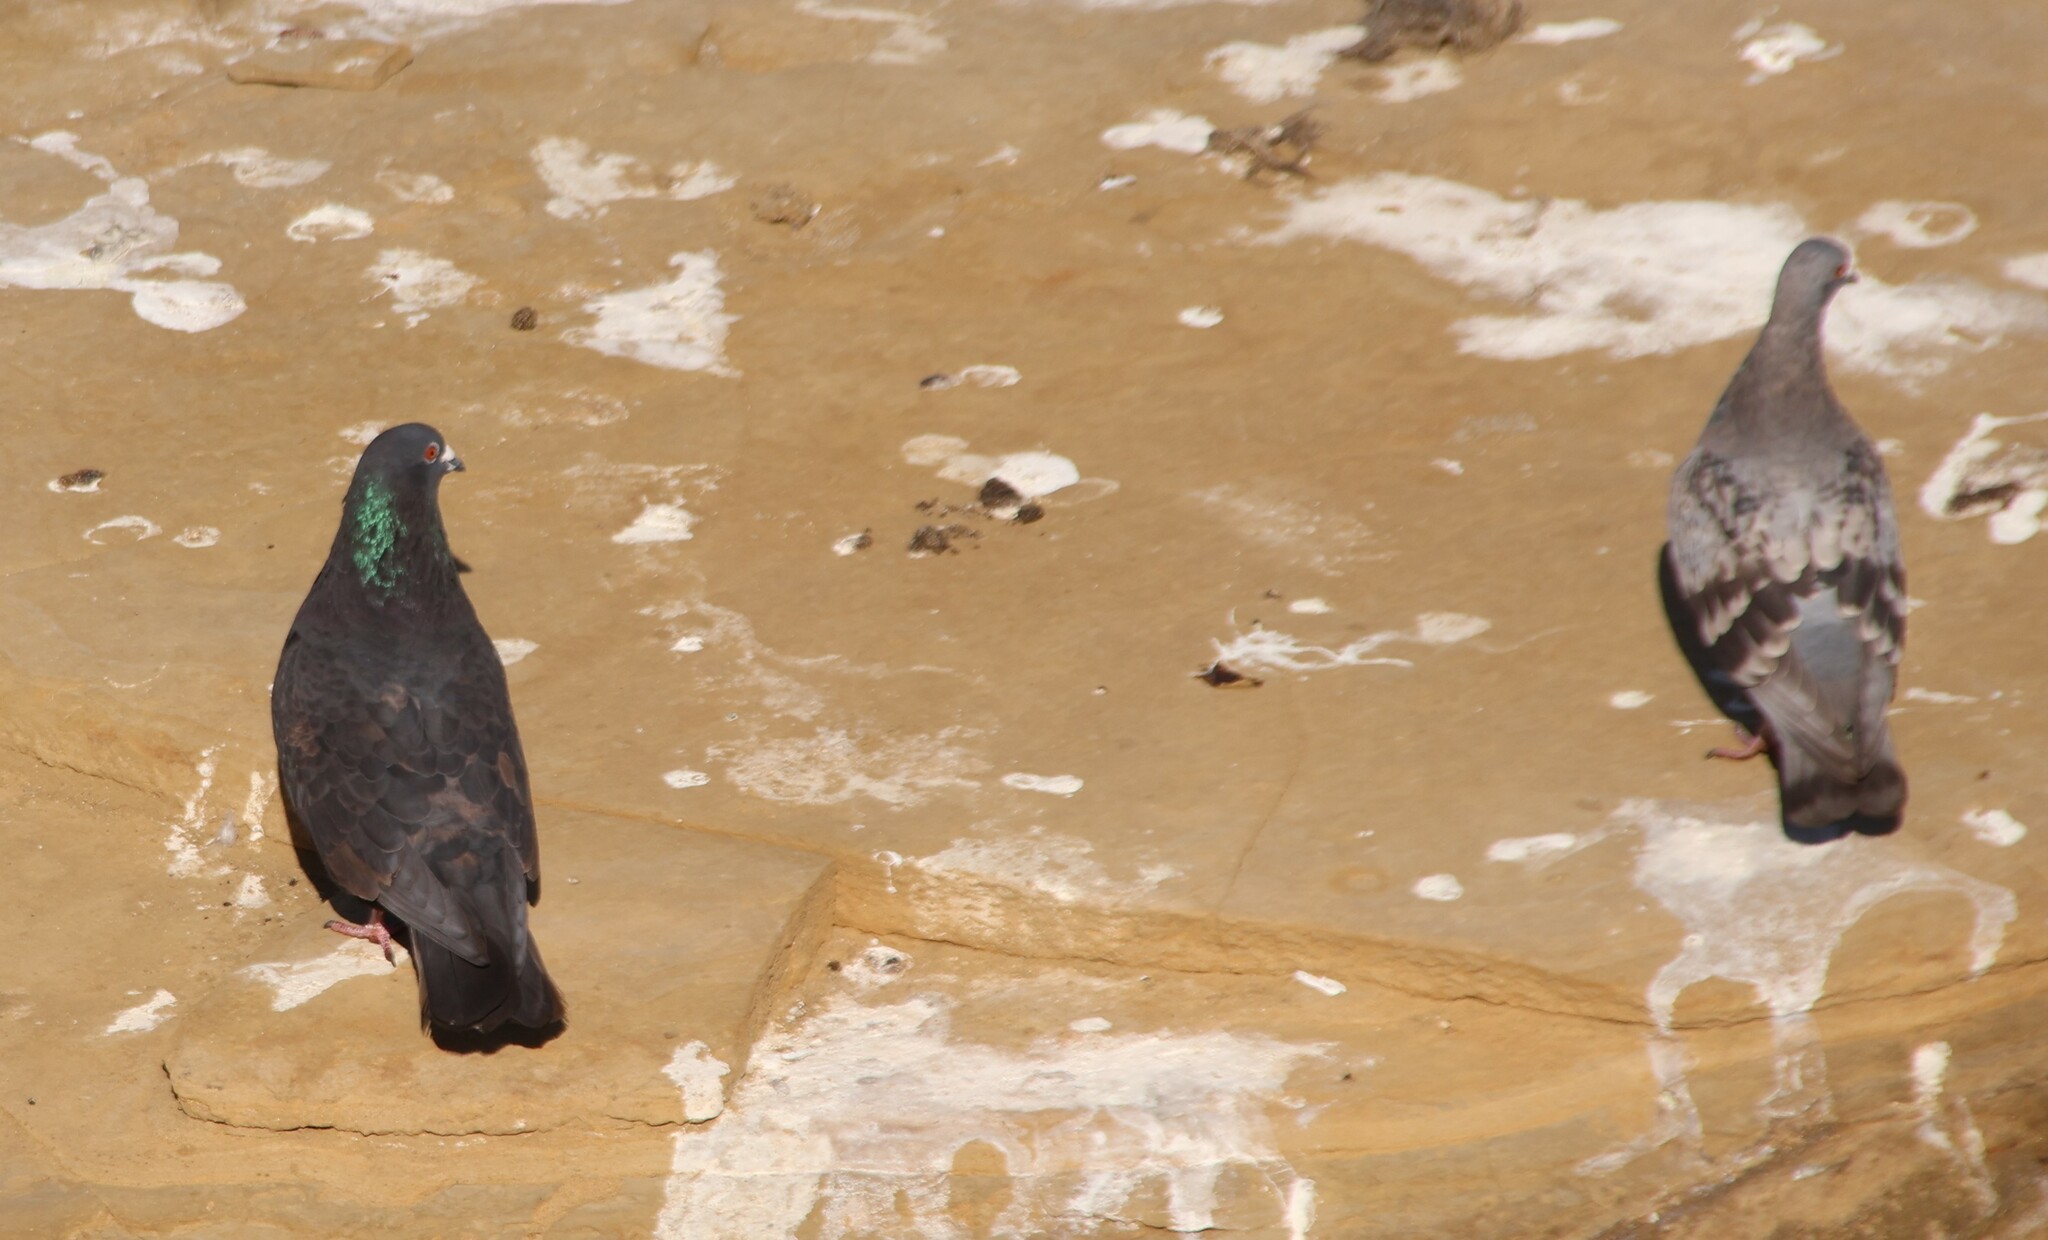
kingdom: Animalia
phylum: Chordata
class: Aves
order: Columbiformes
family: Columbidae
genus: Columba
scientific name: Columba livia
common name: Rock pigeon
